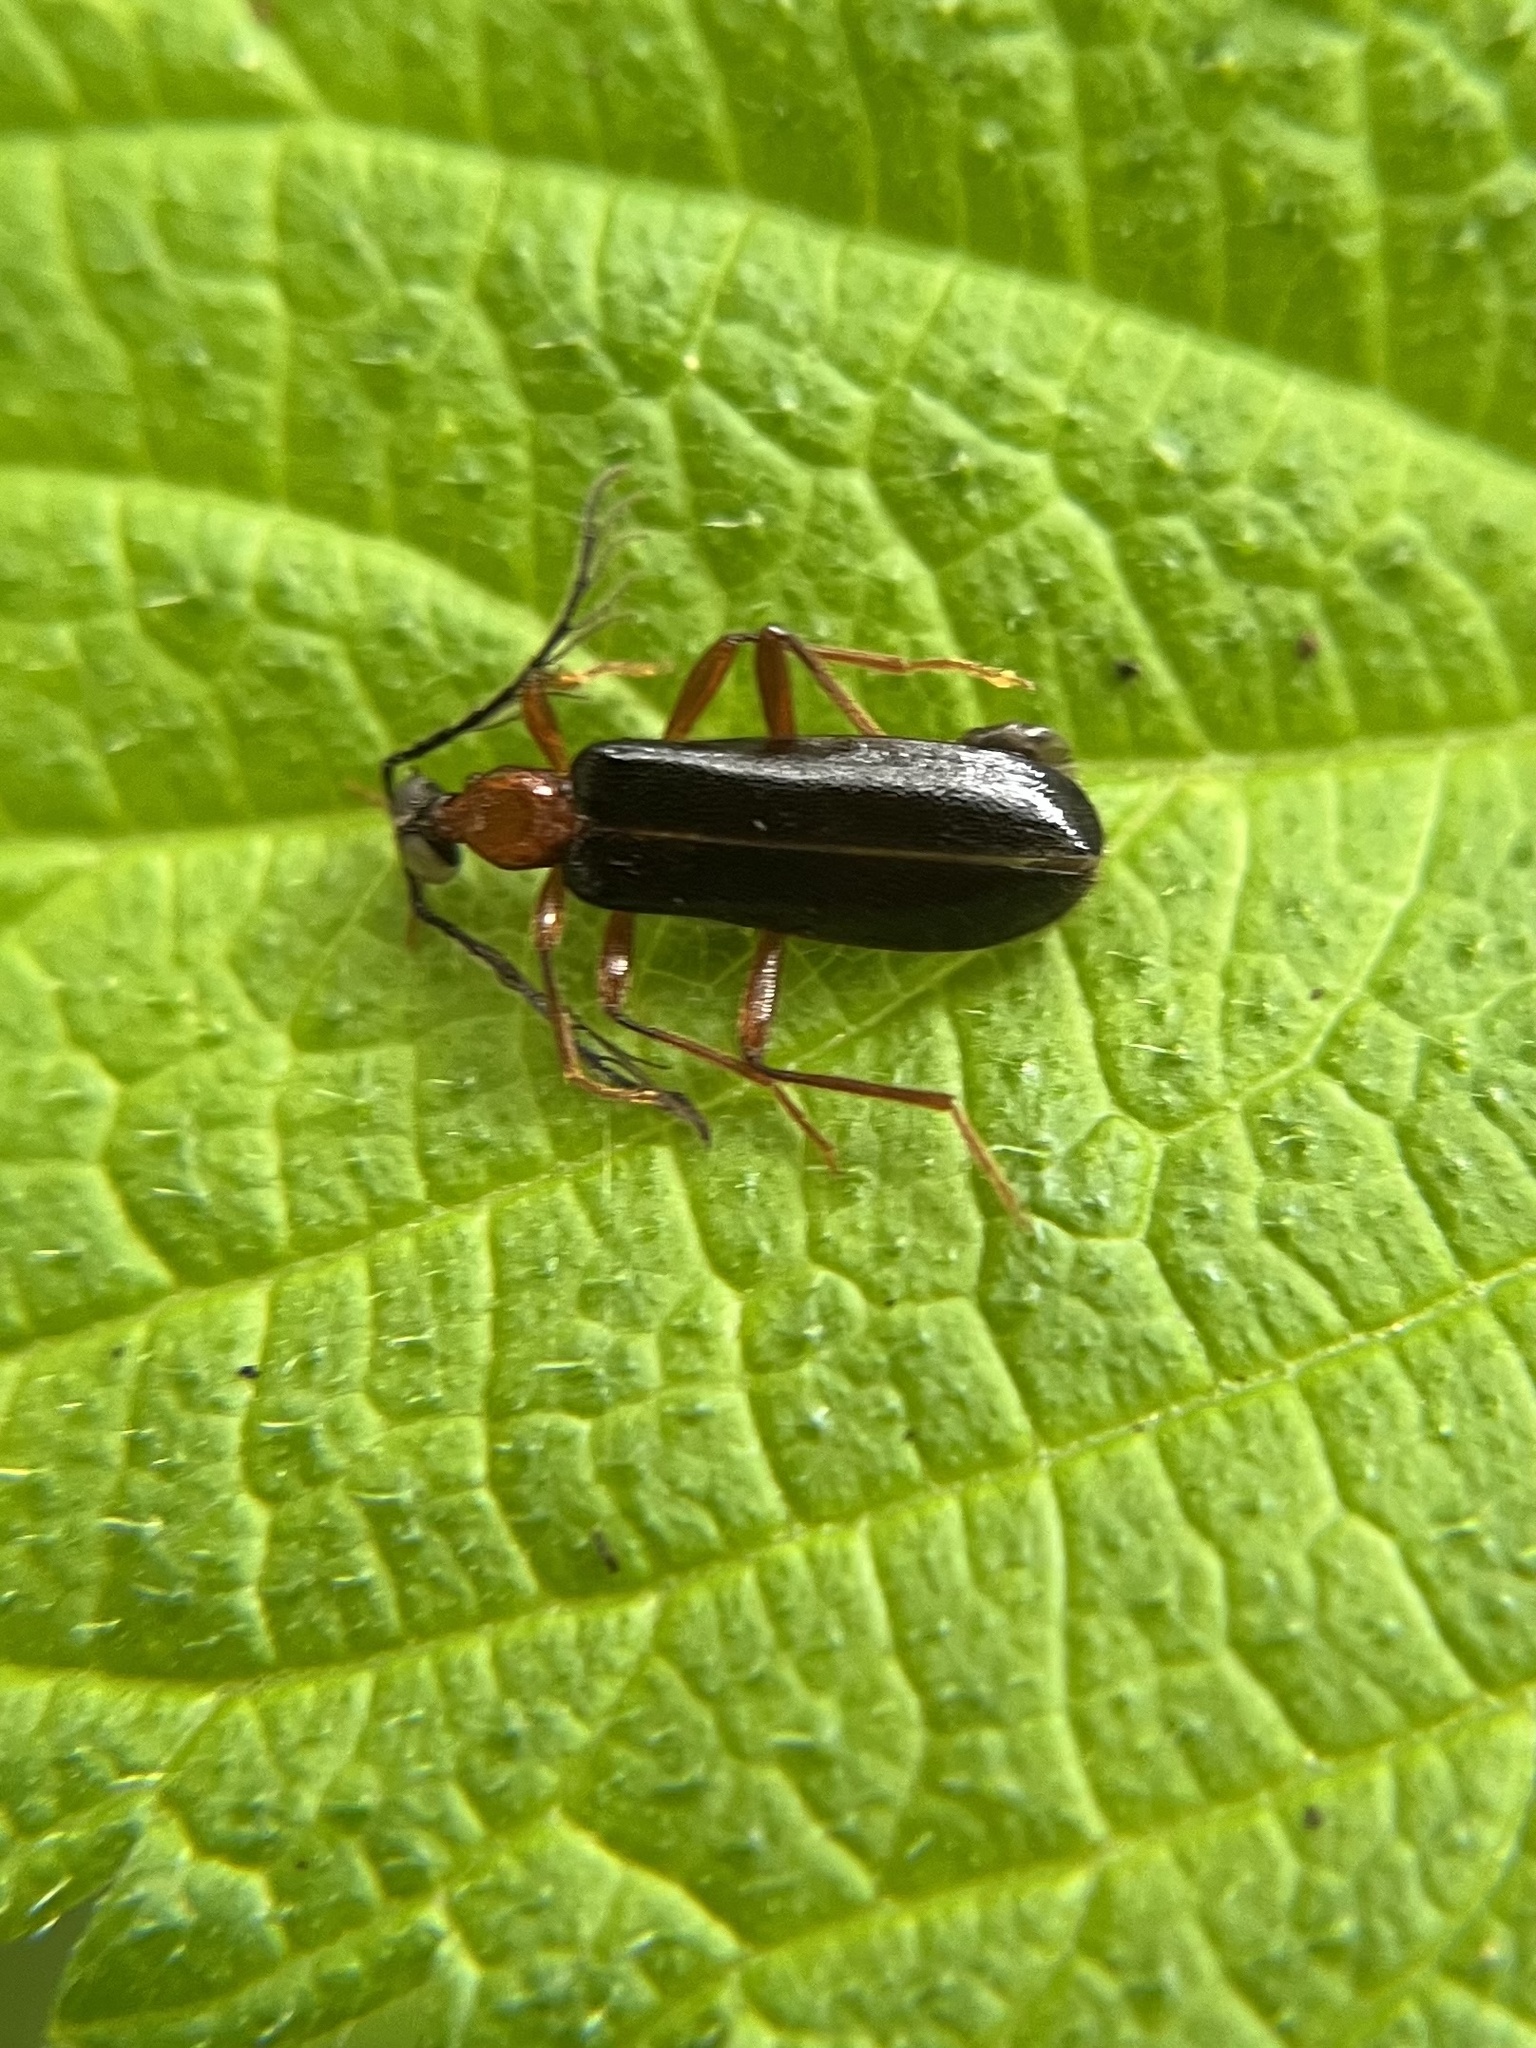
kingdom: Animalia
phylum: Arthropoda
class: Insecta
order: Coleoptera
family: Pyrochroidae
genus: Dendroides
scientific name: Dendroides canadensis
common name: Canada fire-colored beetle
